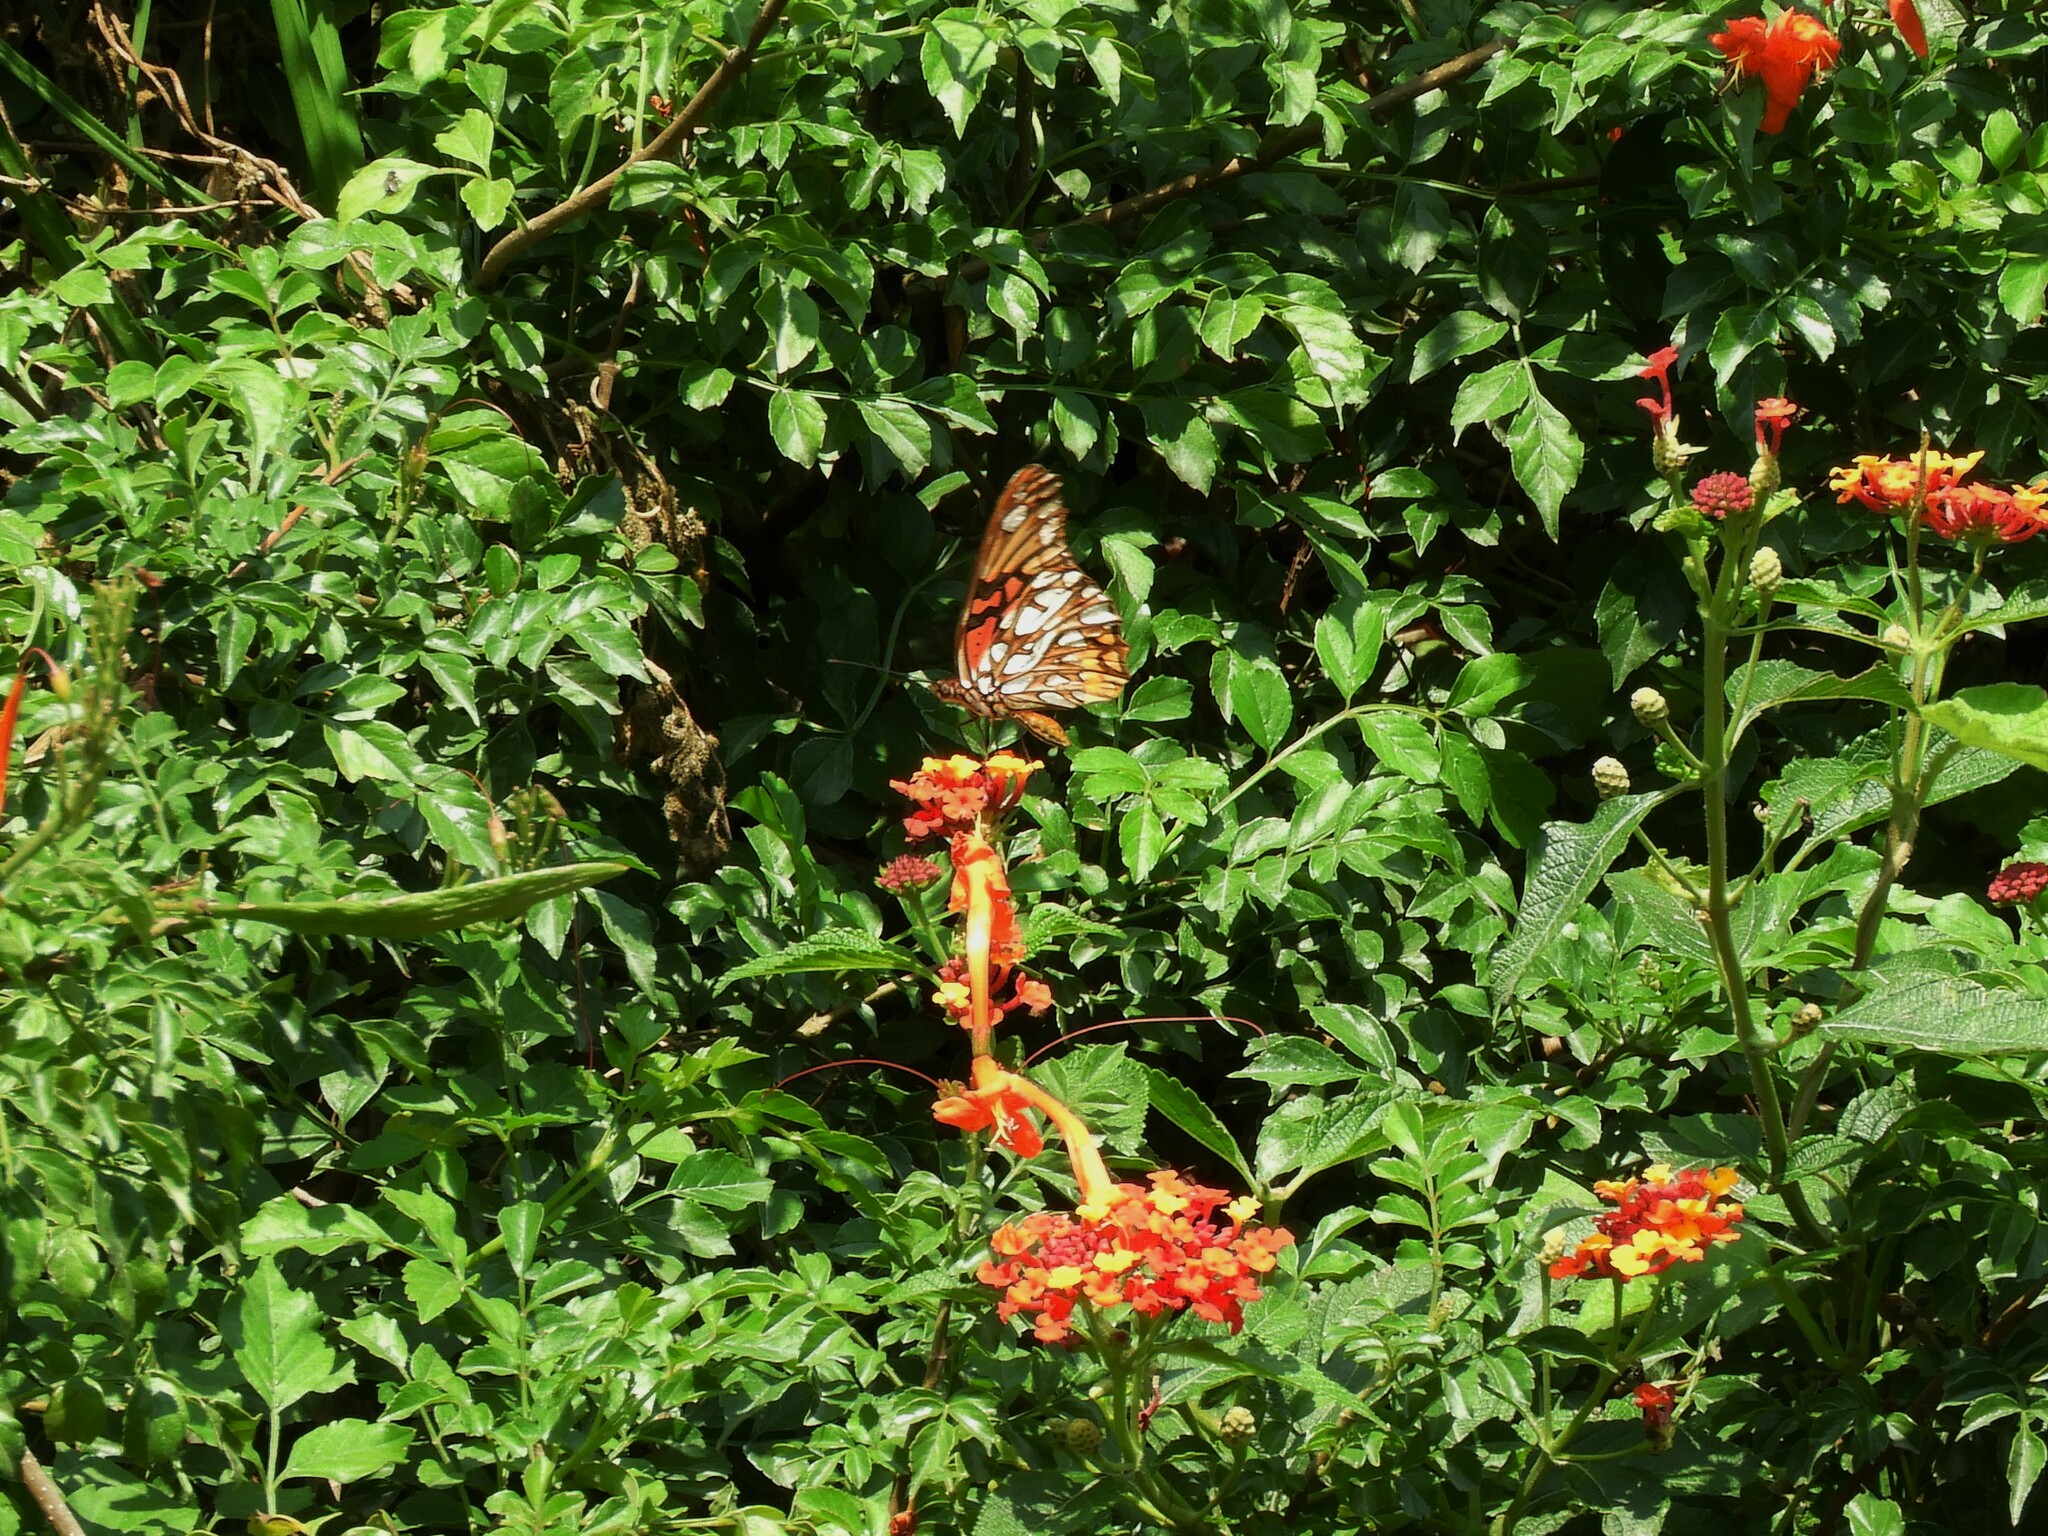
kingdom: Animalia
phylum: Arthropoda
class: Insecta
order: Lepidoptera
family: Nymphalidae
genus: Dione
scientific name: Dione moneta
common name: Mexican silverspot
